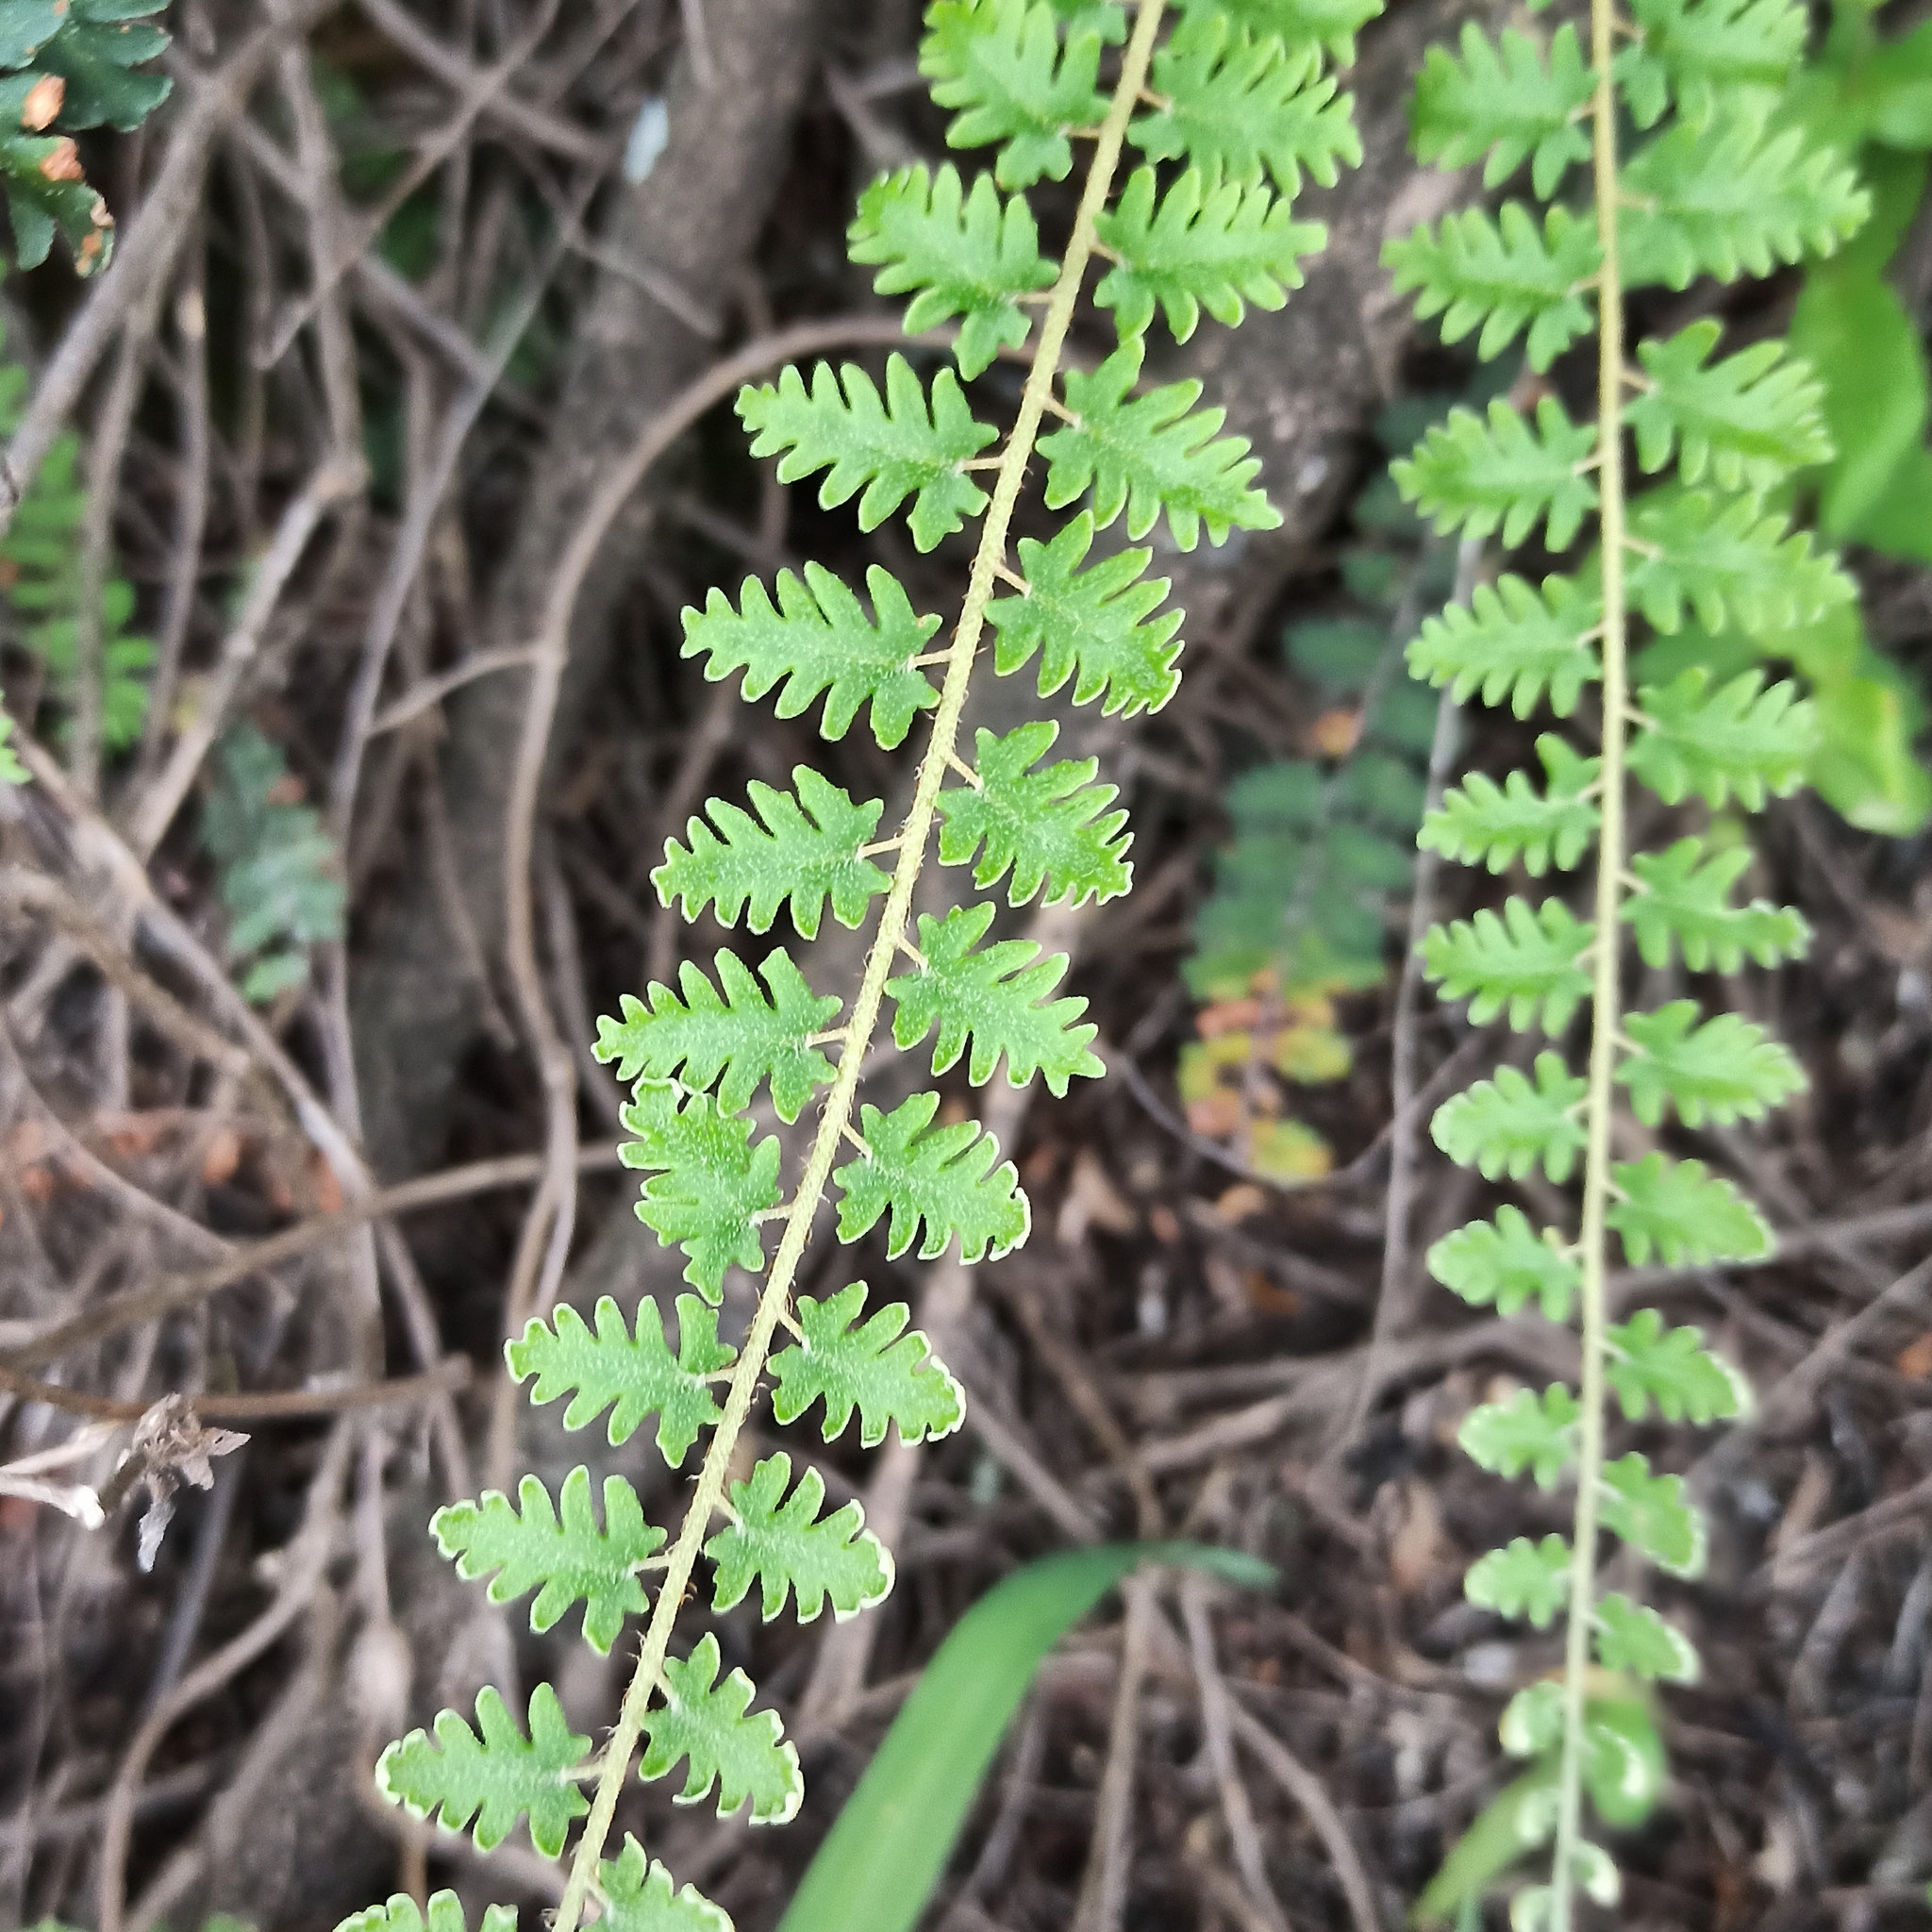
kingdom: Plantae
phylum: Tracheophyta
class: Polypodiopsida
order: Polypodiales
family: Pteridaceae
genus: Astrolepis
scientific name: Astrolepis sinuata
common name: Wavy scaly cloakfern
